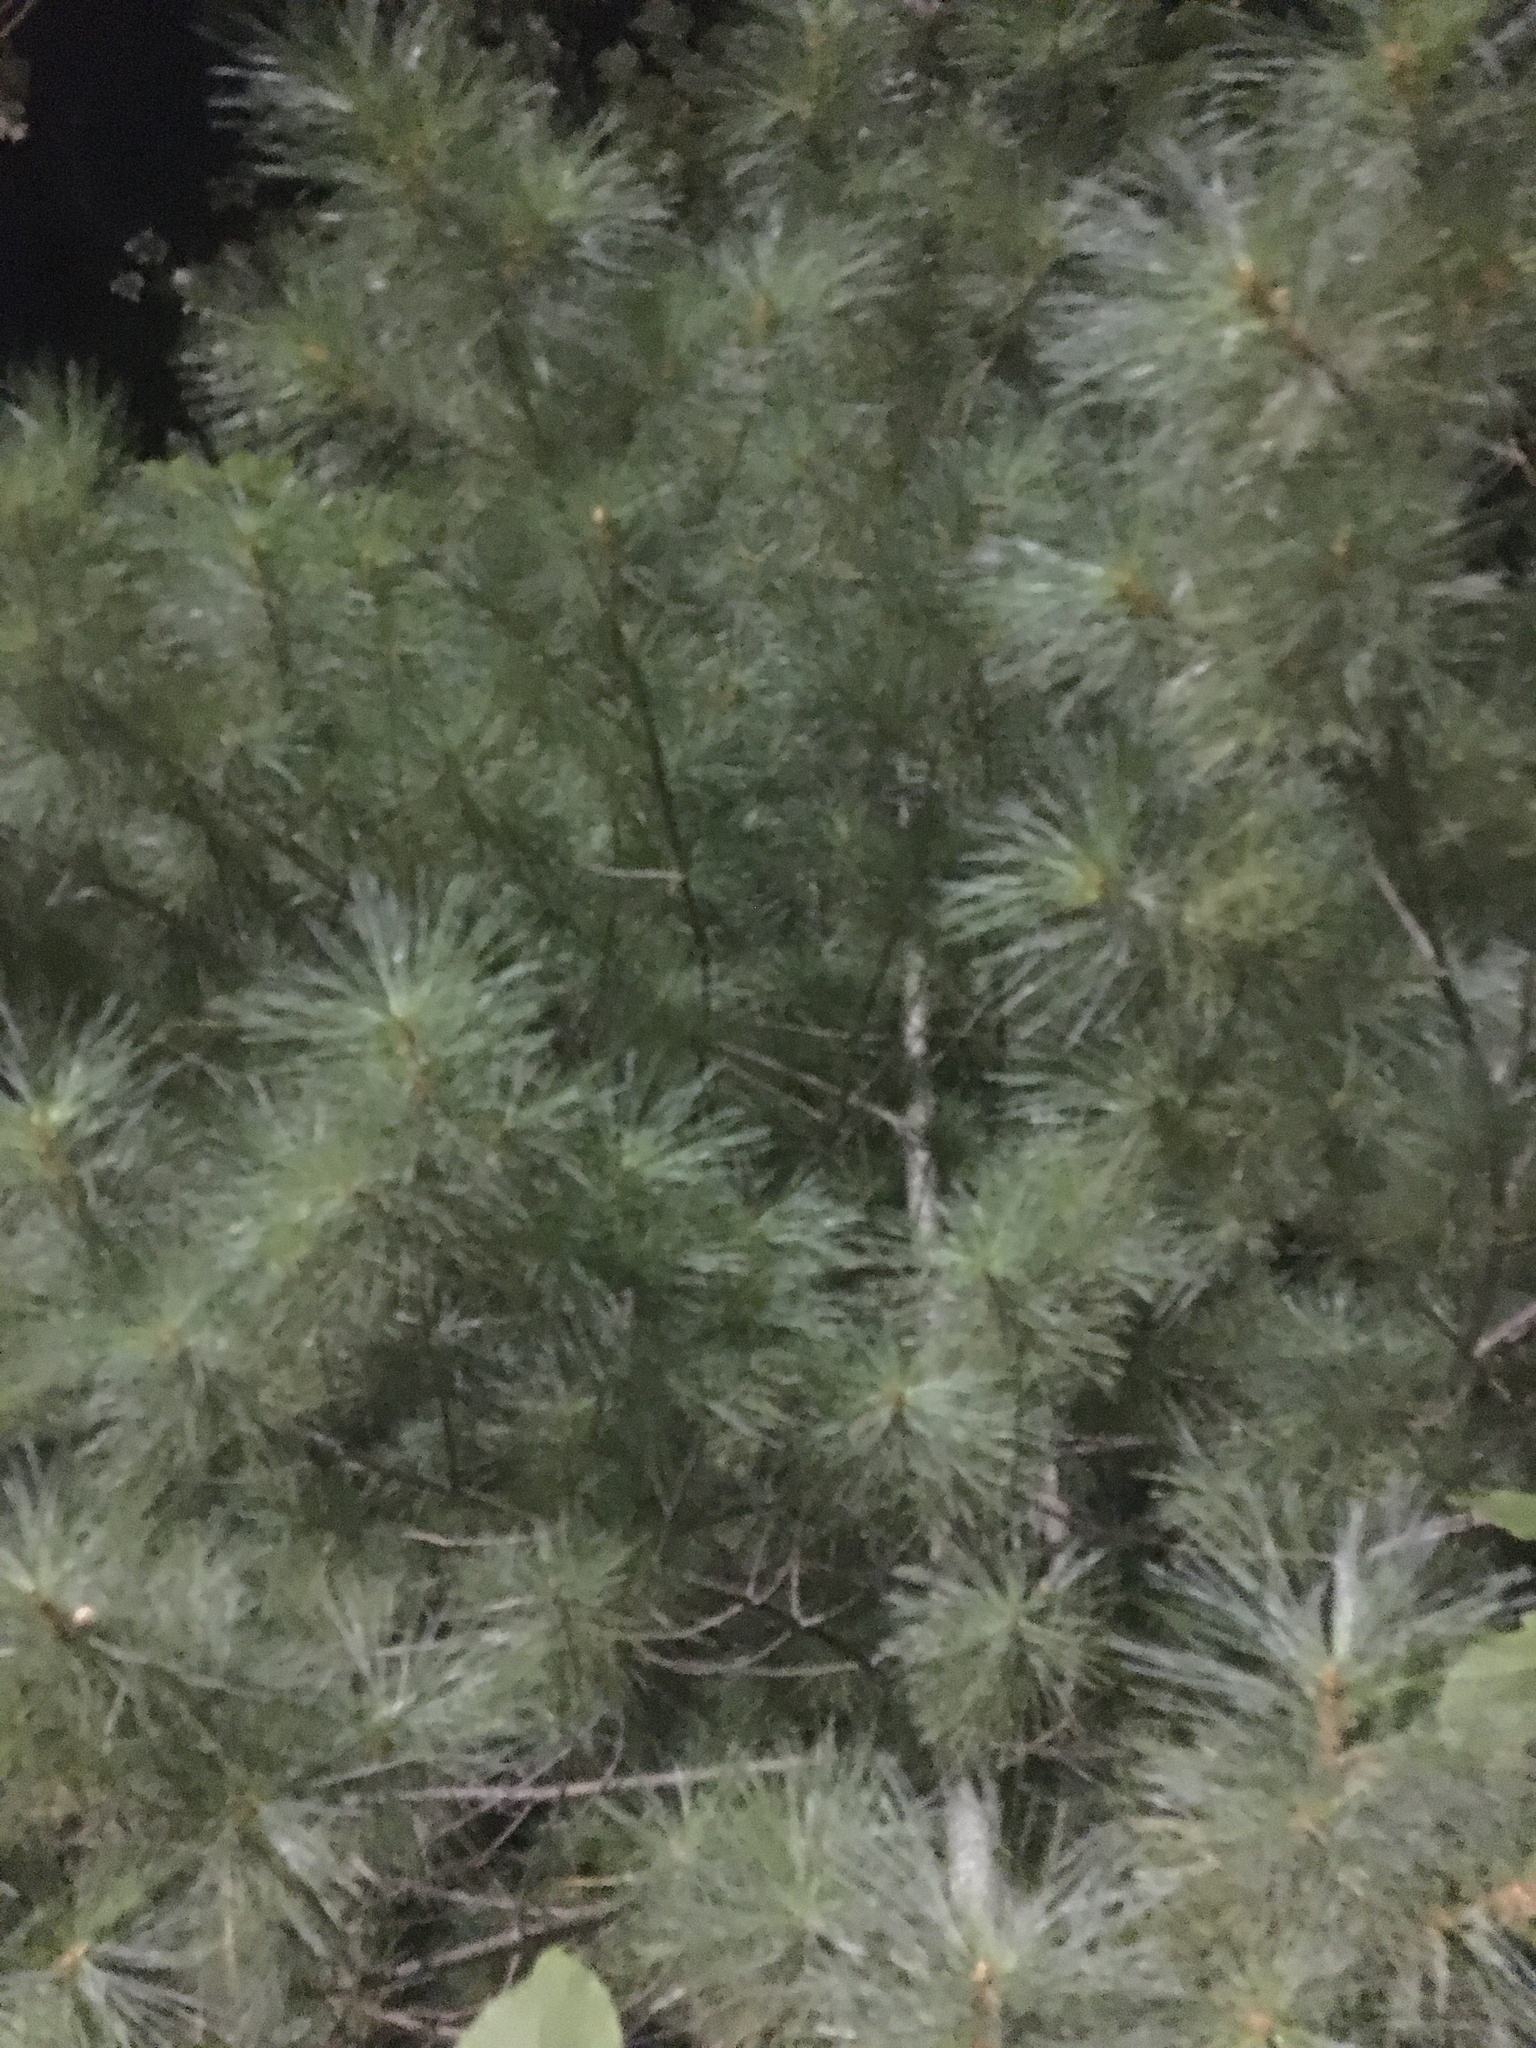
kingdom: Plantae
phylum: Tracheophyta
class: Pinopsida
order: Pinales
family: Pinaceae
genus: Pinus
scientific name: Pinus strobus
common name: Weymouth pine
